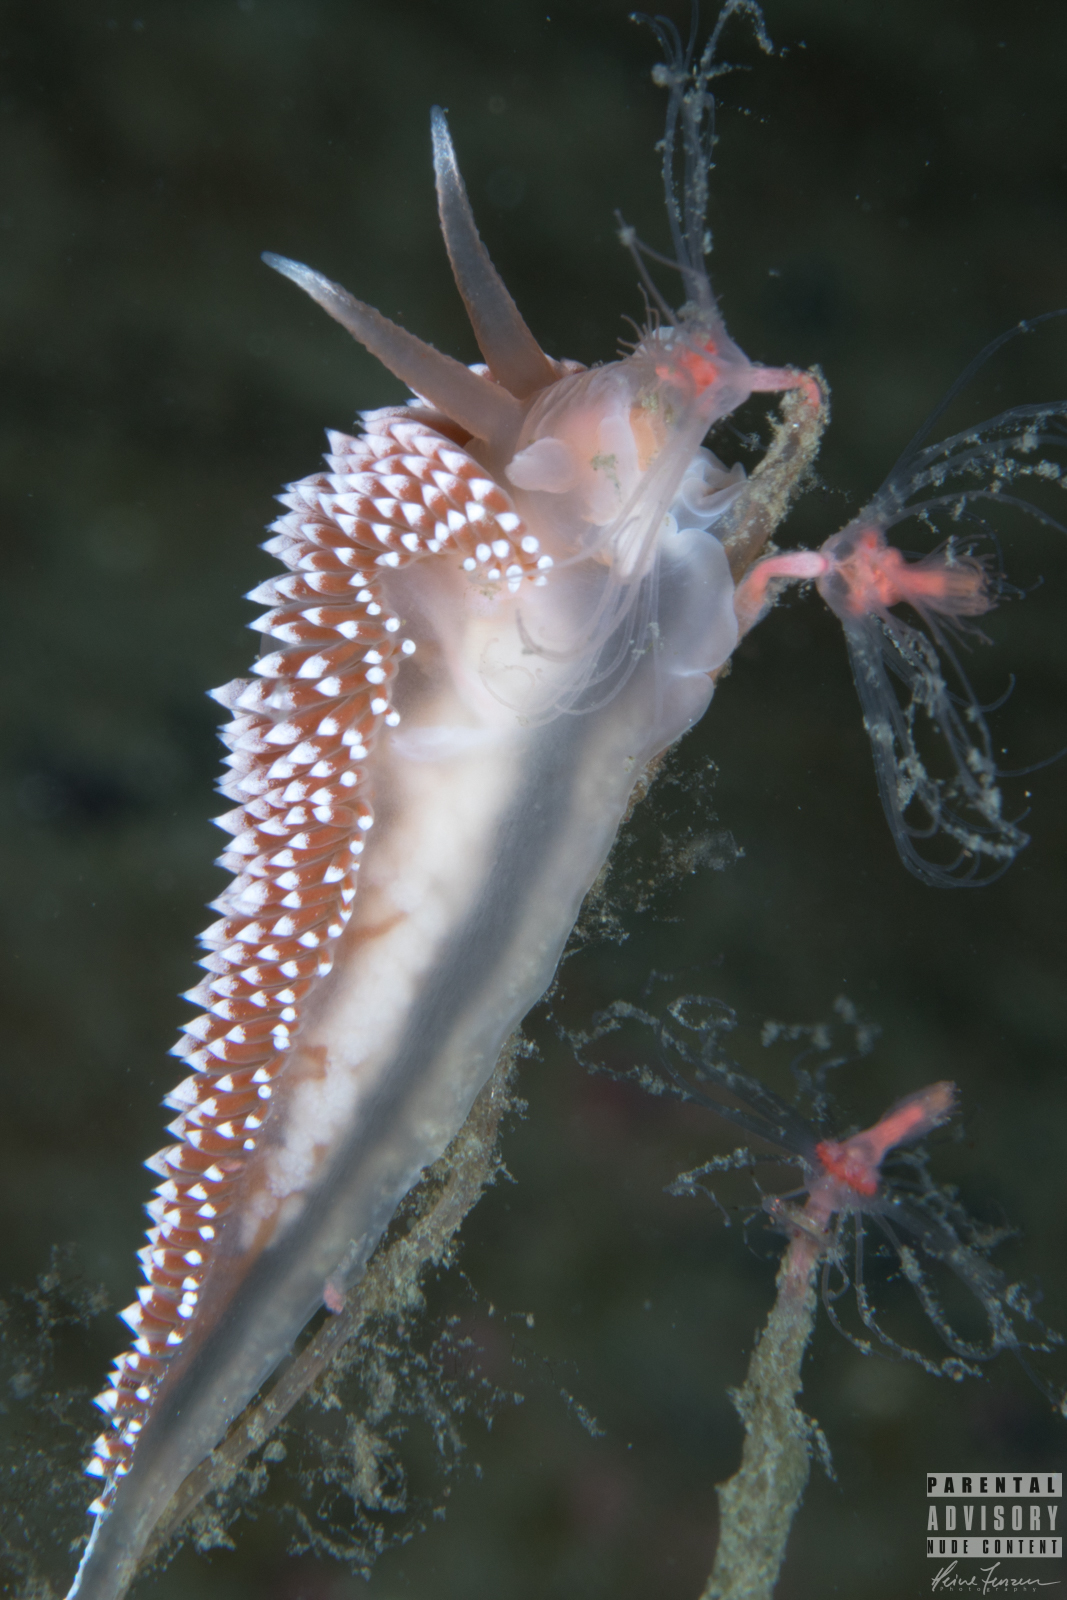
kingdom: Animalia
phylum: Mollusca
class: Gastropoda
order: Nudibranchia
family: Coryphellidae
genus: Coryphella
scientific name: Coryphella verrucosa
